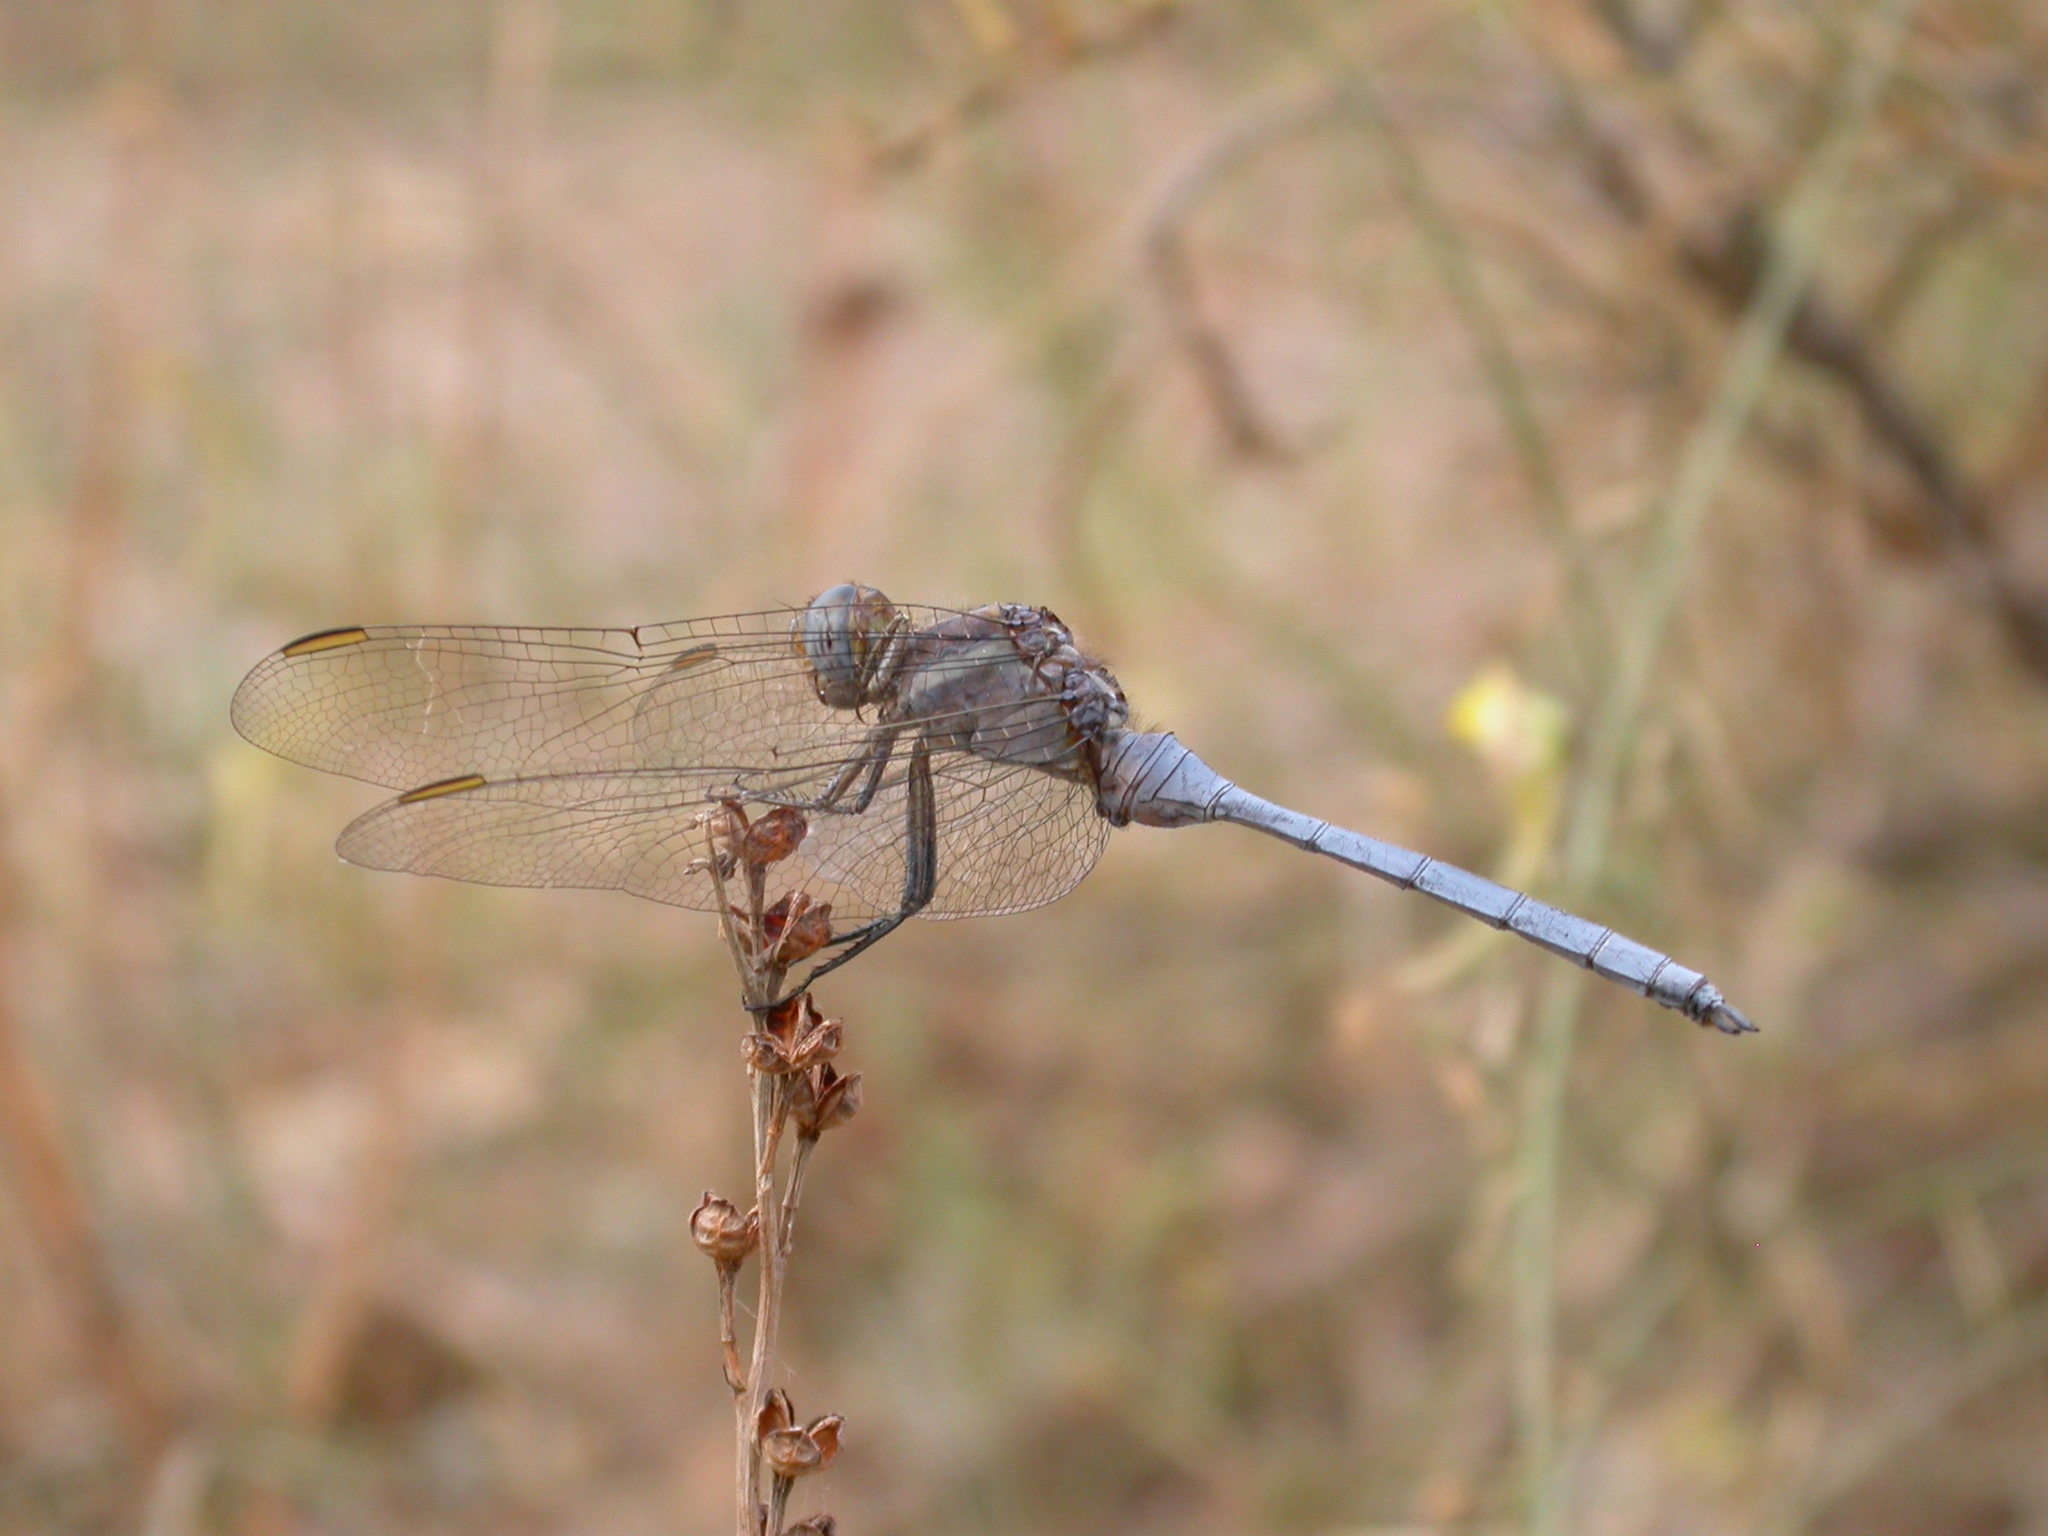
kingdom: Animalia
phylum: Arthropoda
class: Insecta
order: Odonata
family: Libellulidae
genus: Orthetrum
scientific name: Orthetrum chrysostigma
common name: Epaulet skimmer
